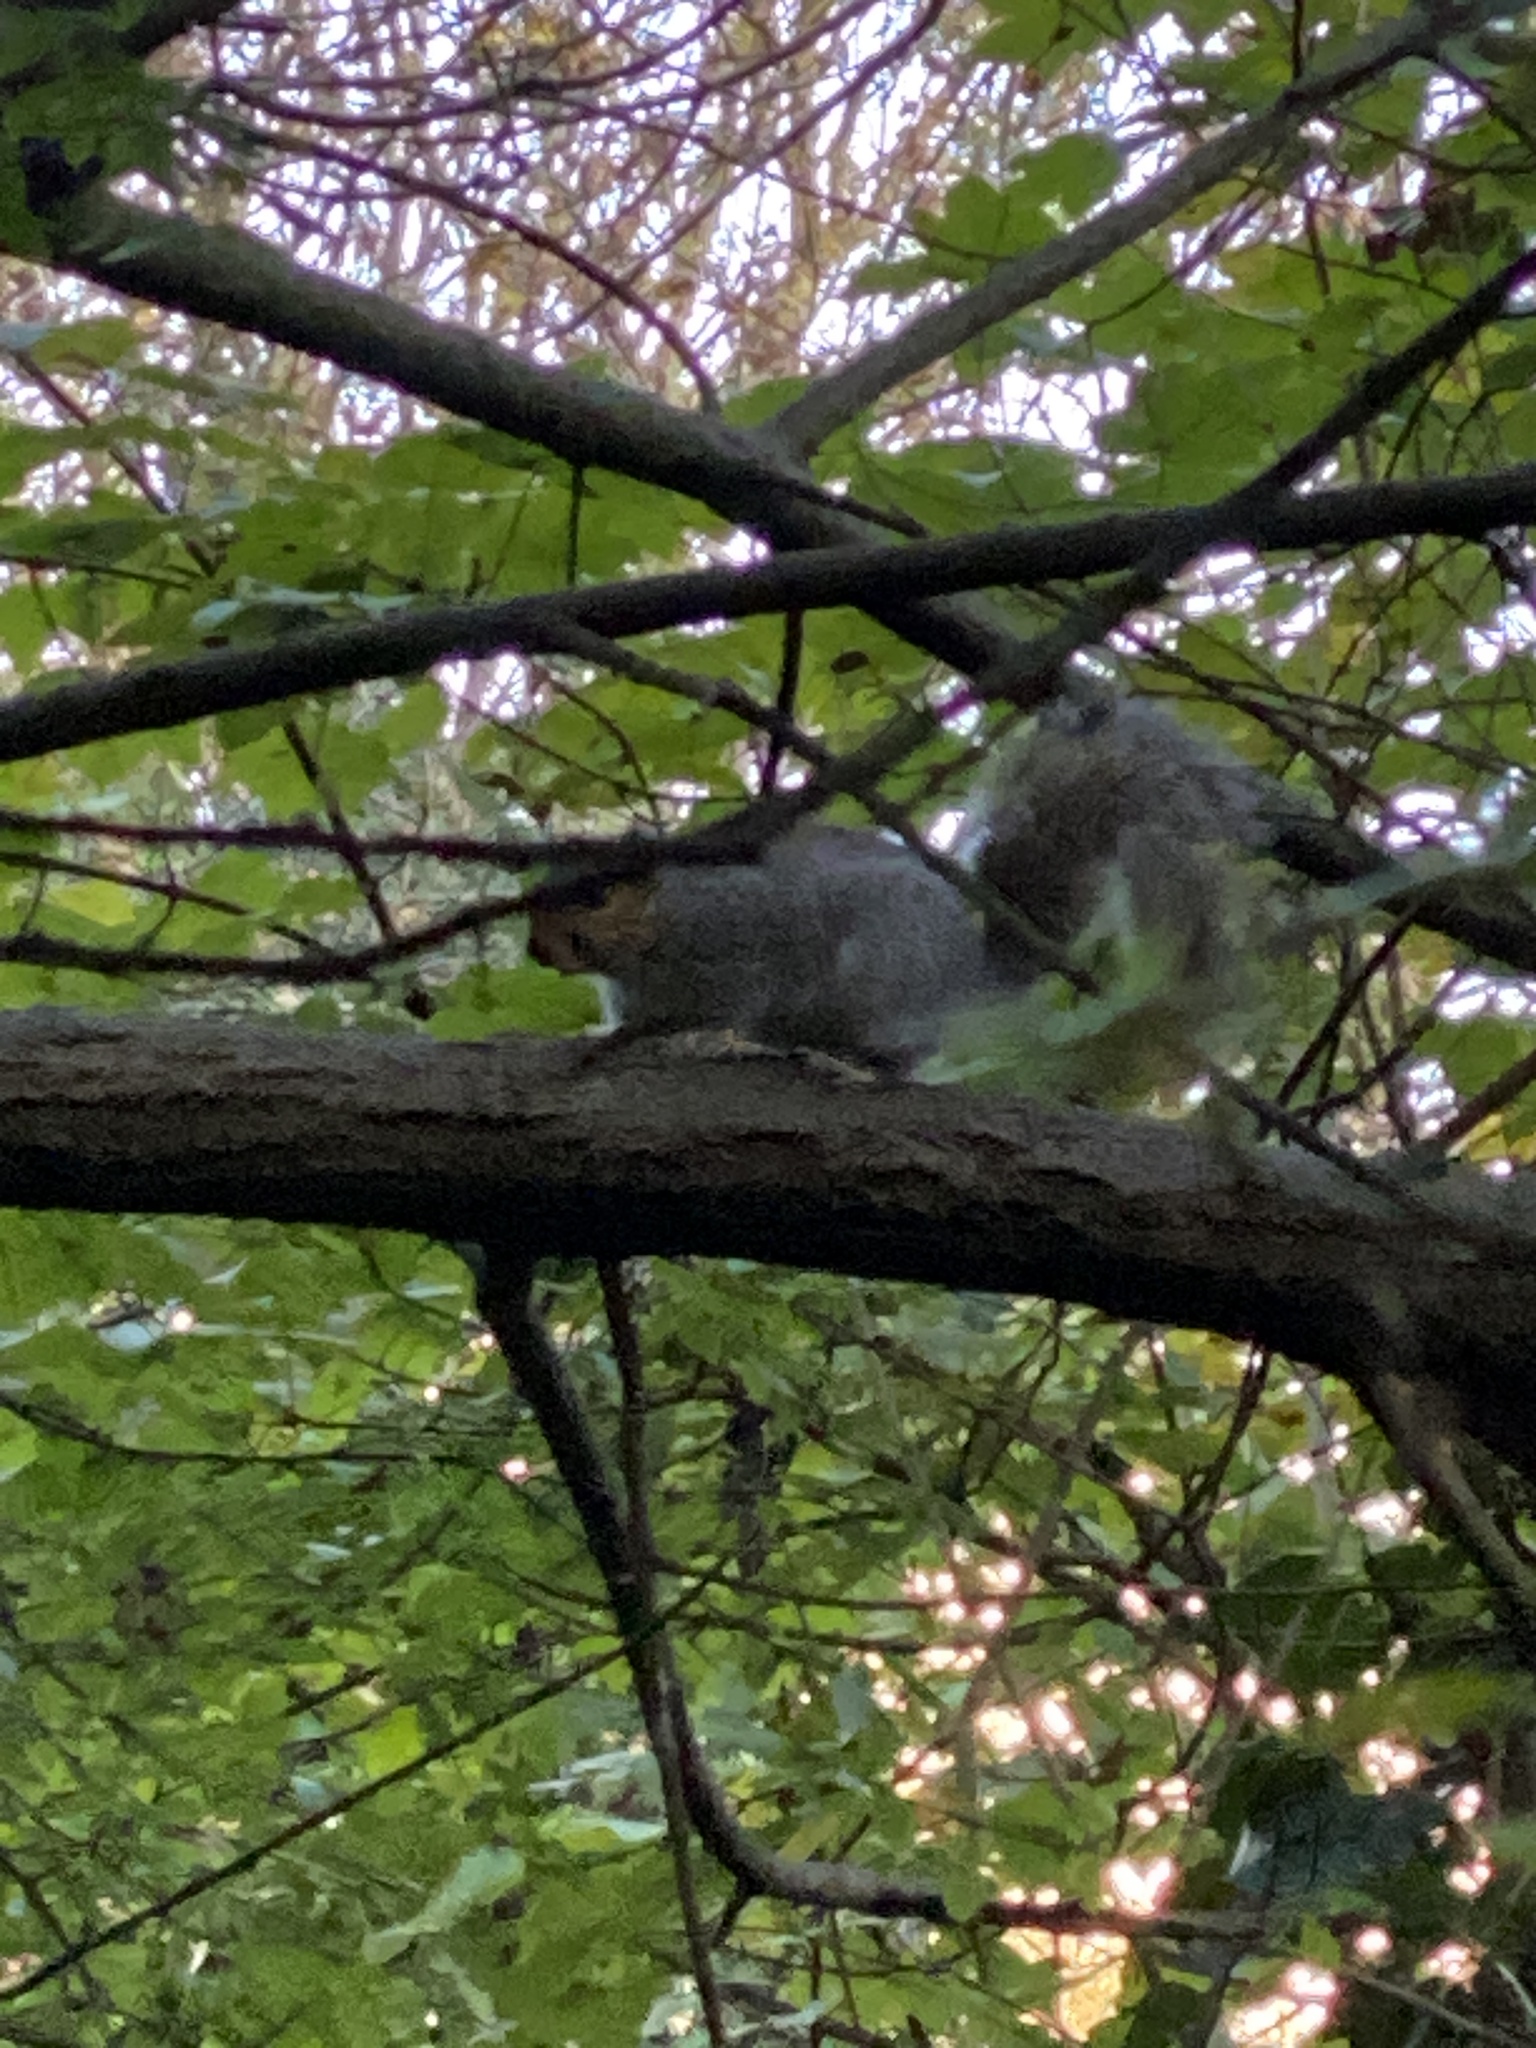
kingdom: Animalia
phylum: Chordata
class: Mammalia
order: Rodentia
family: Sciuridae
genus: Sciurus
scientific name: Sciurus carolinensis
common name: Eastern gray squirrel
